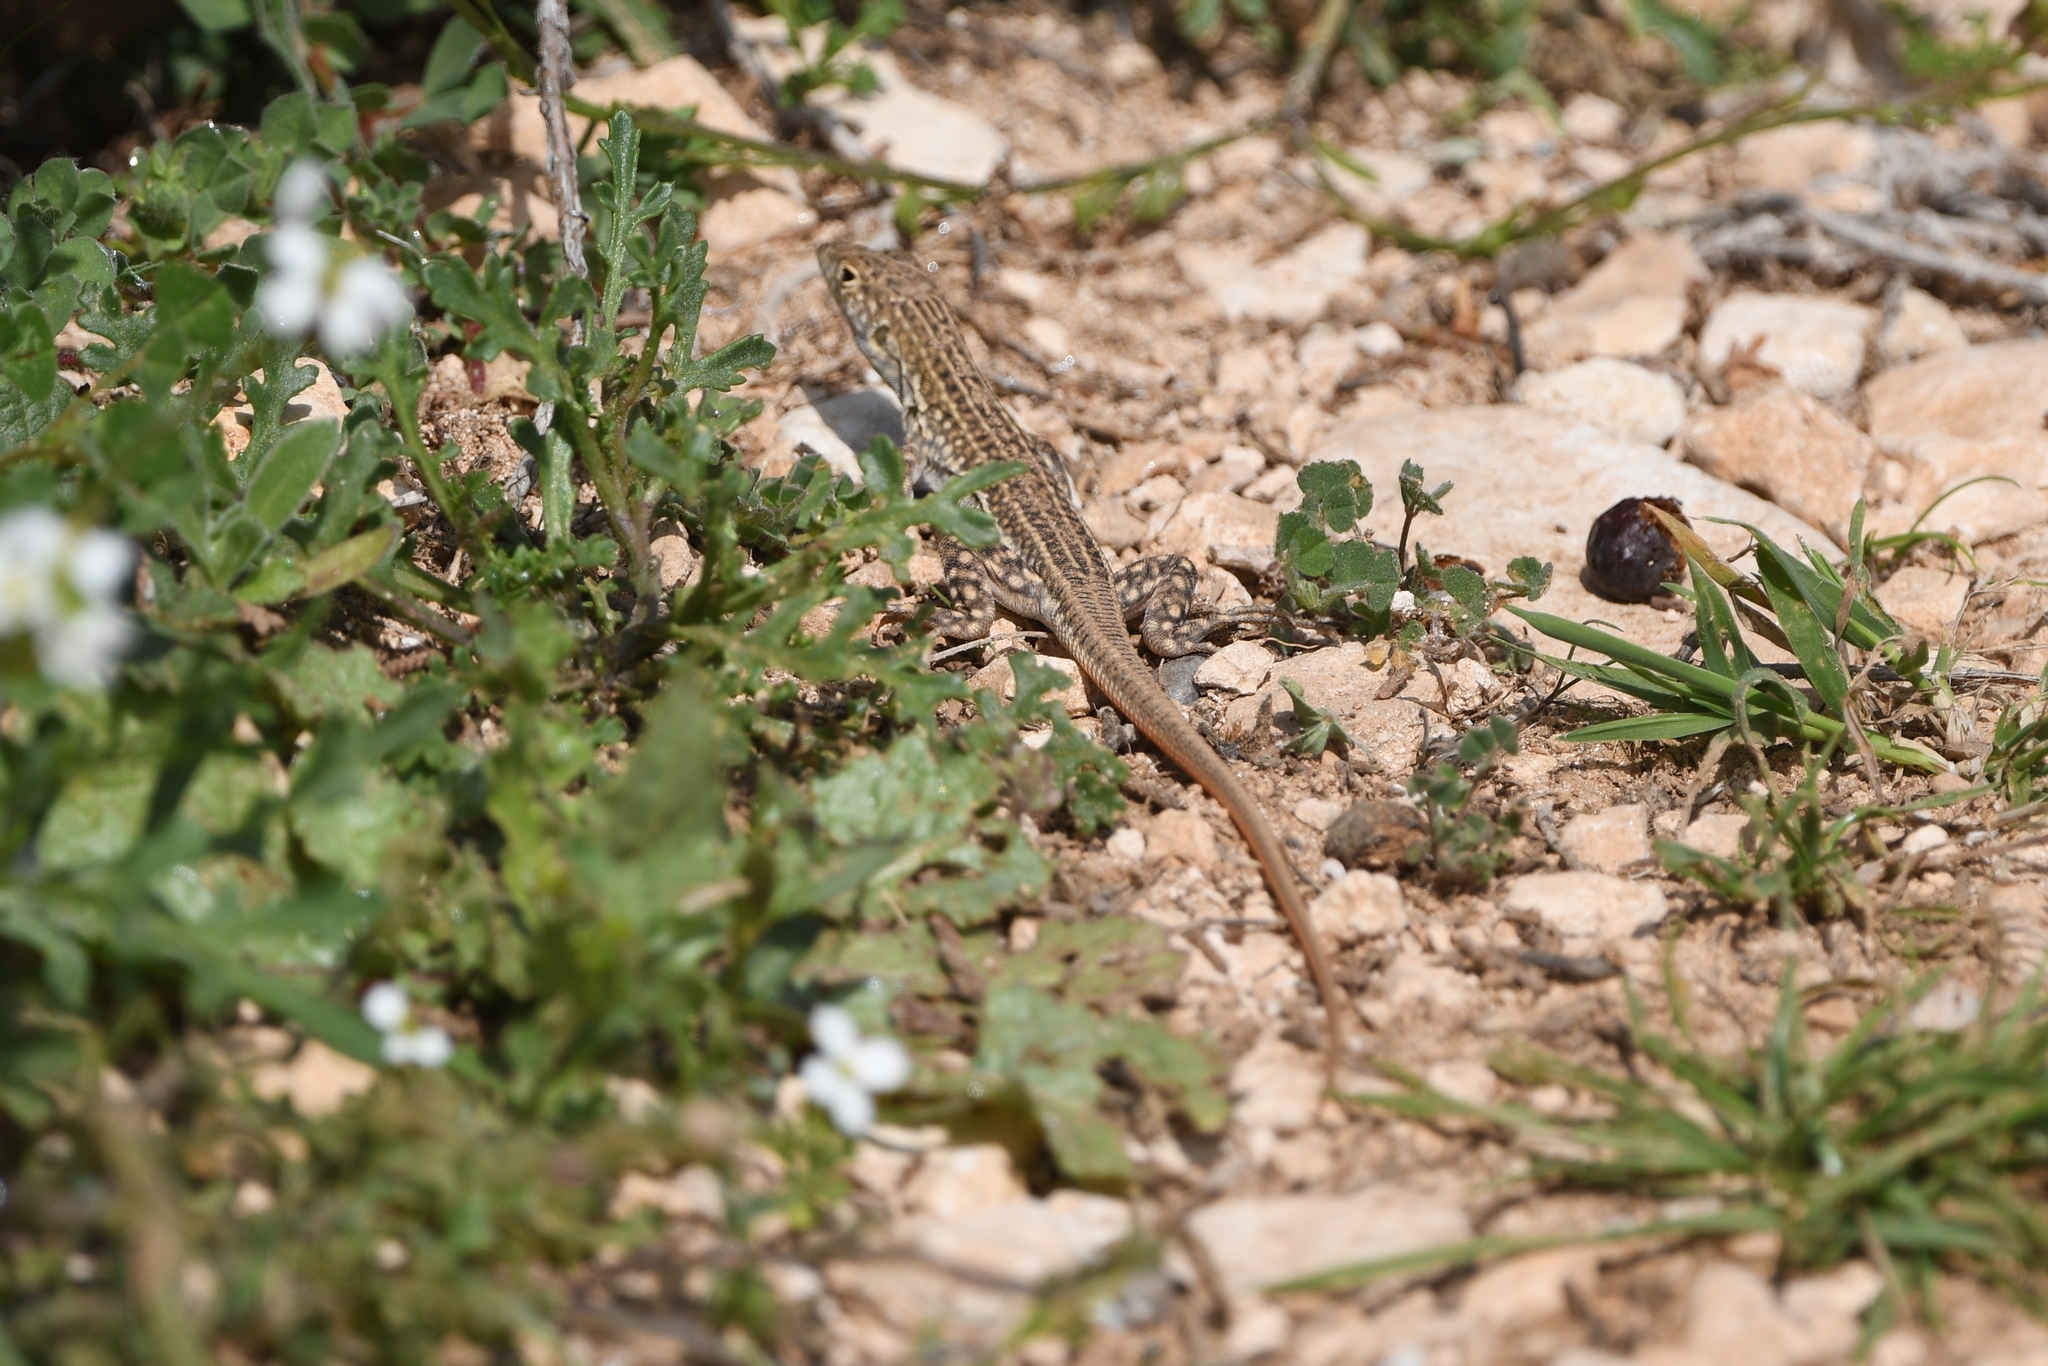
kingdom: Animalia
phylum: Chordata
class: Squamata
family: Lacertidae
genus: Acanthodactylus
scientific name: Acanthodactylus schreiberi
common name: Schreiber's fringe-fingered lizard
